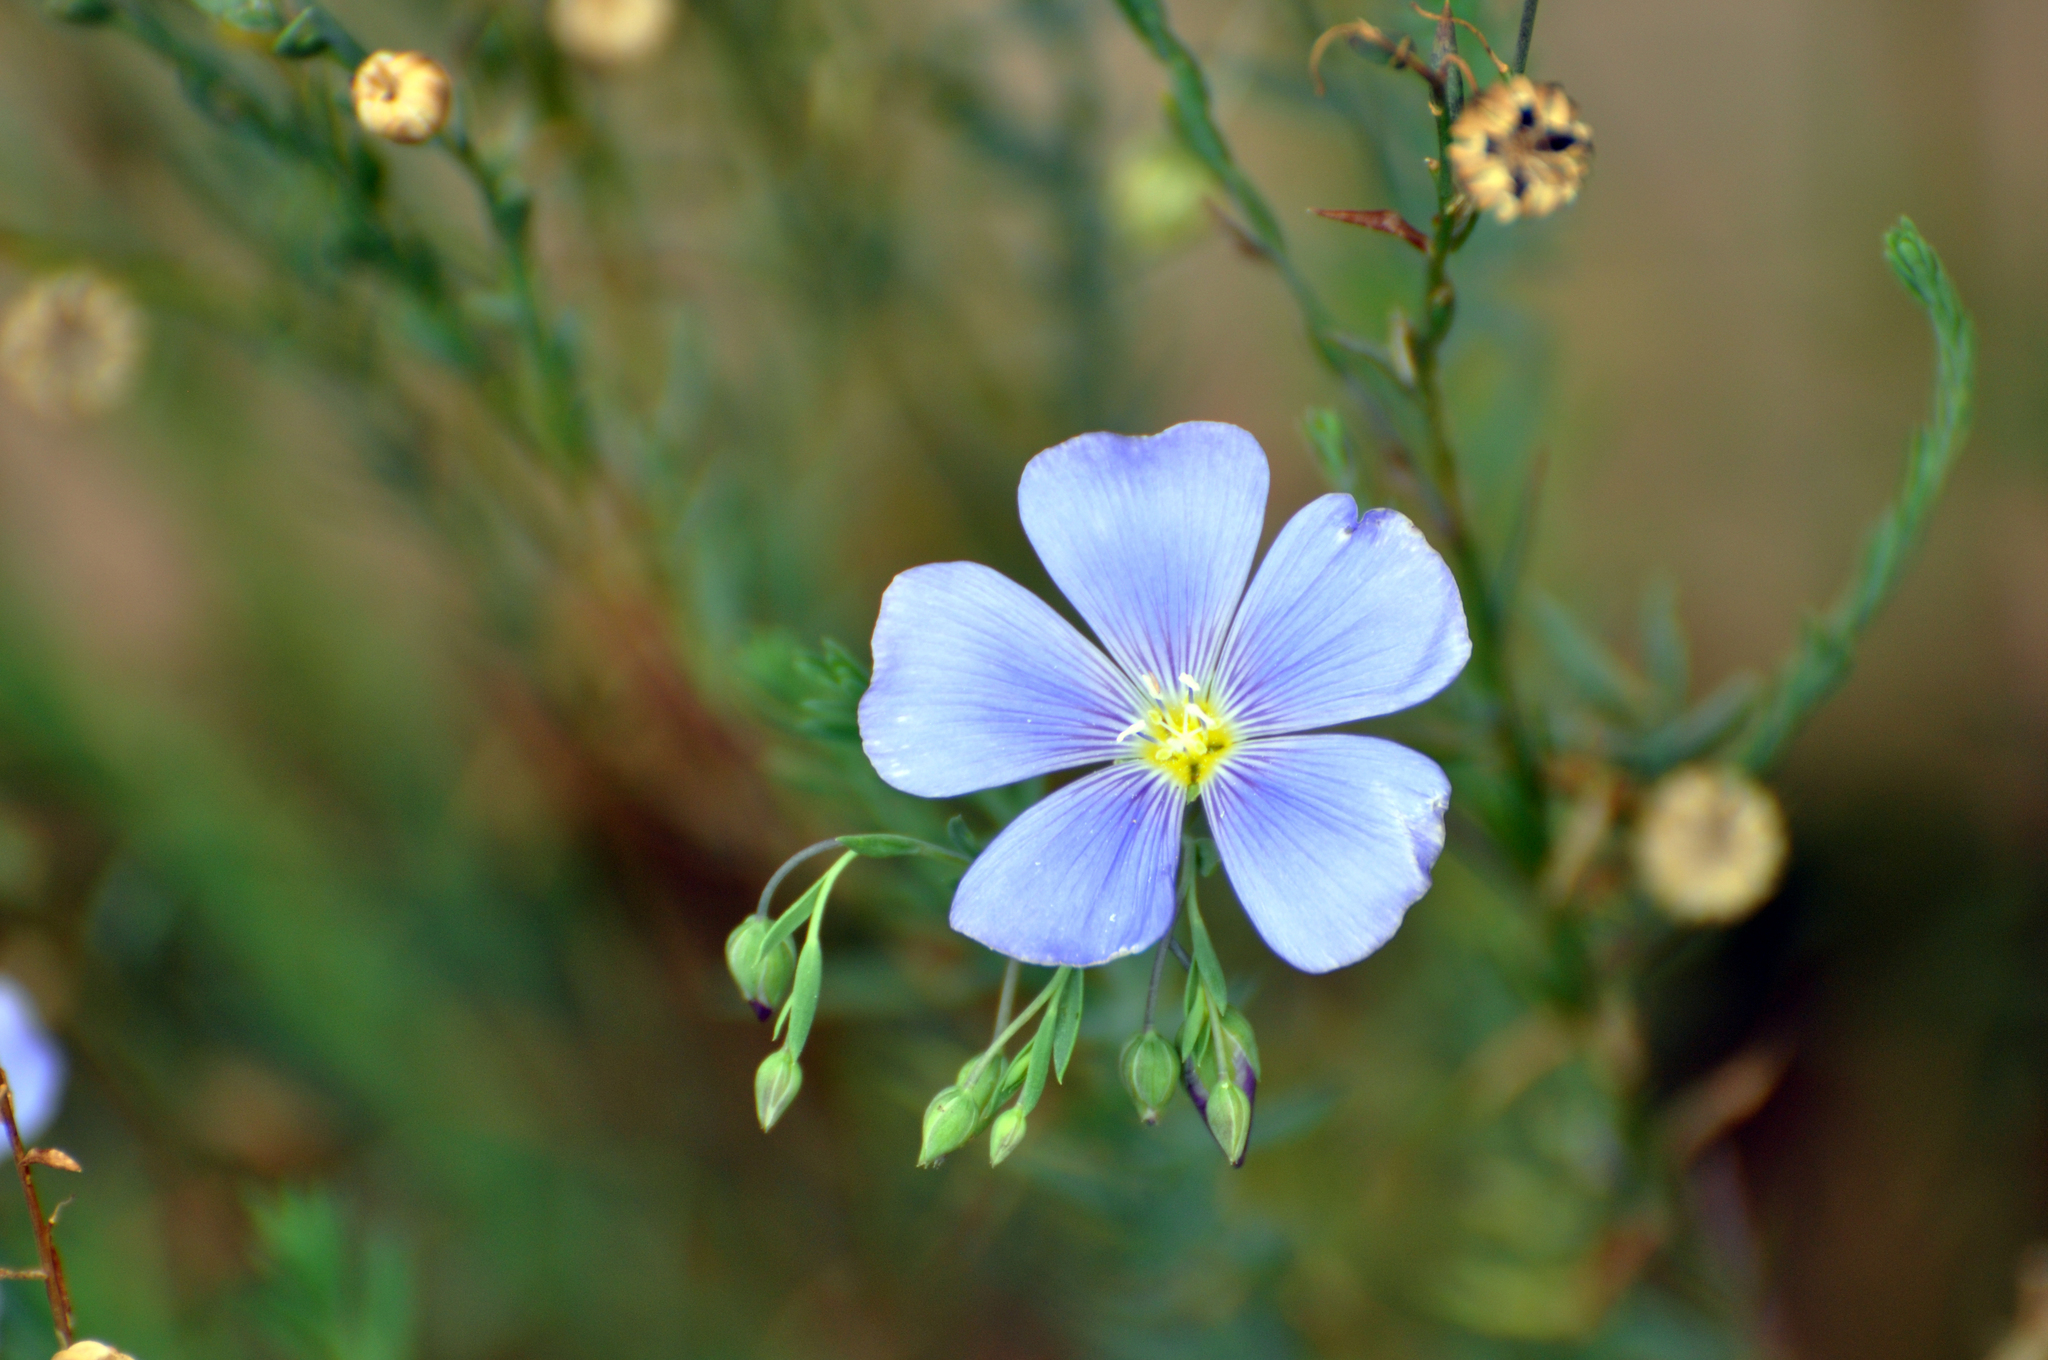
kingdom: Plantae
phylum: Tracheophyta
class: Magnoliopsida
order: Malpighiales
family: Linaceae
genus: Linum
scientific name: Linum lewisii
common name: Prairie flax
